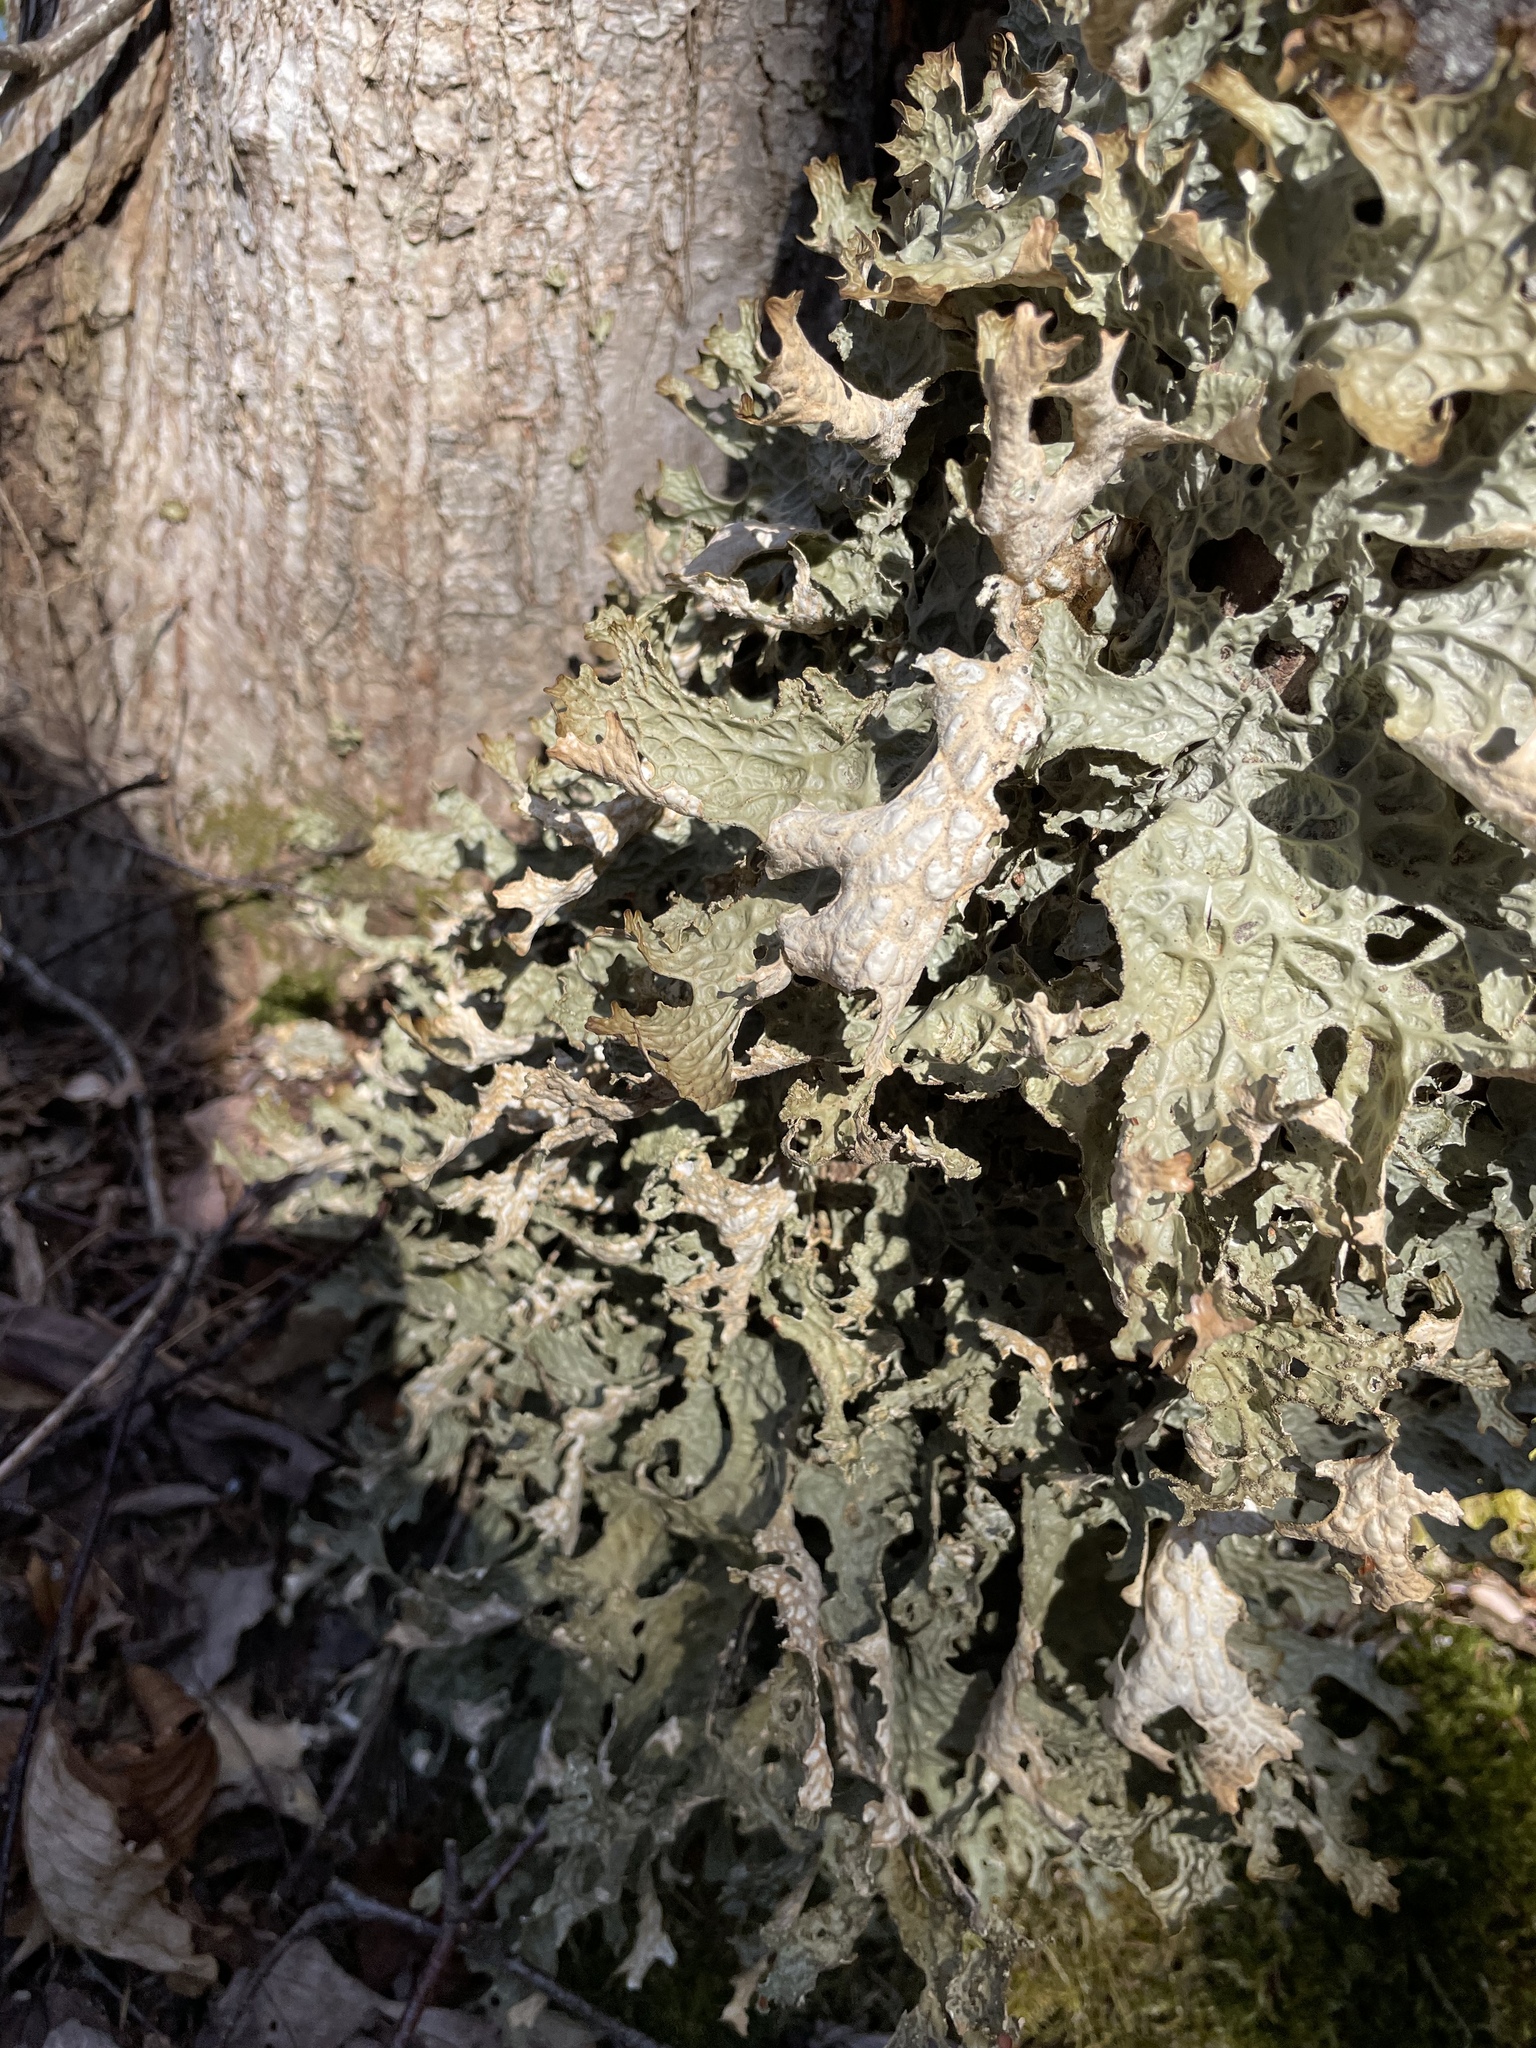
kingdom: Fungi
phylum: Ascomycota
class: Lecanoromycetes
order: Peltigerales
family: Lobariaceae
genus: Lobaria
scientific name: Lobaria pulmonaria
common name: Lungwort
